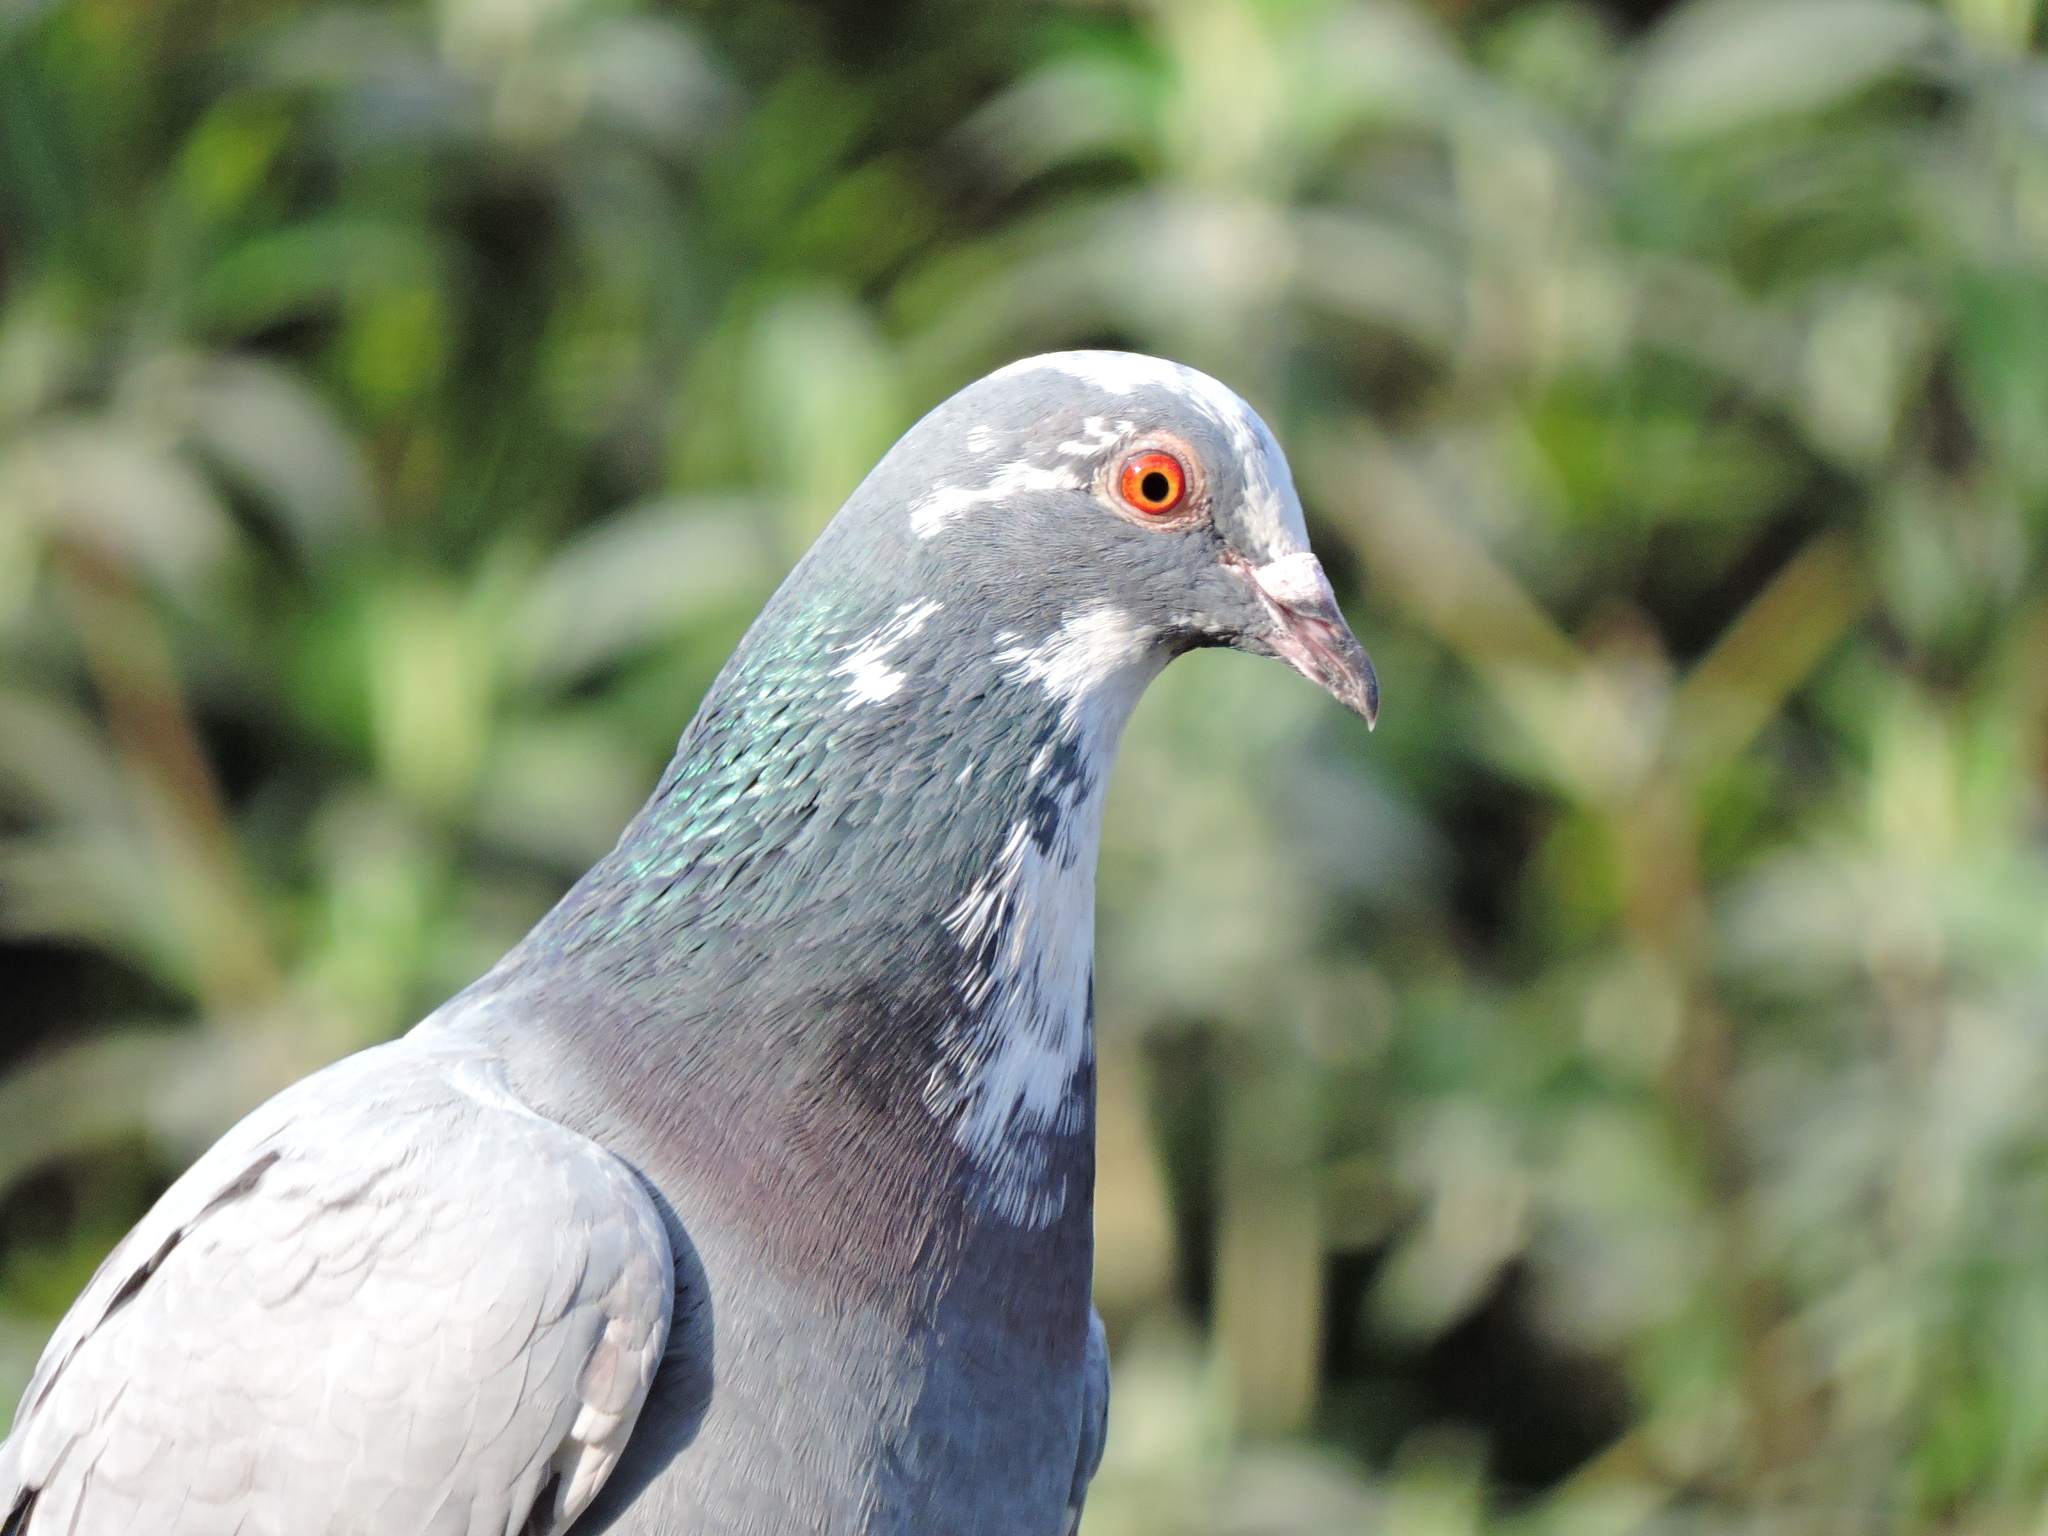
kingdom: Animalia
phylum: Chordata
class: Aves
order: Columbiformes
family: Columbidae
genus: Columba
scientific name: Columba livia
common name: Rock pigeon
